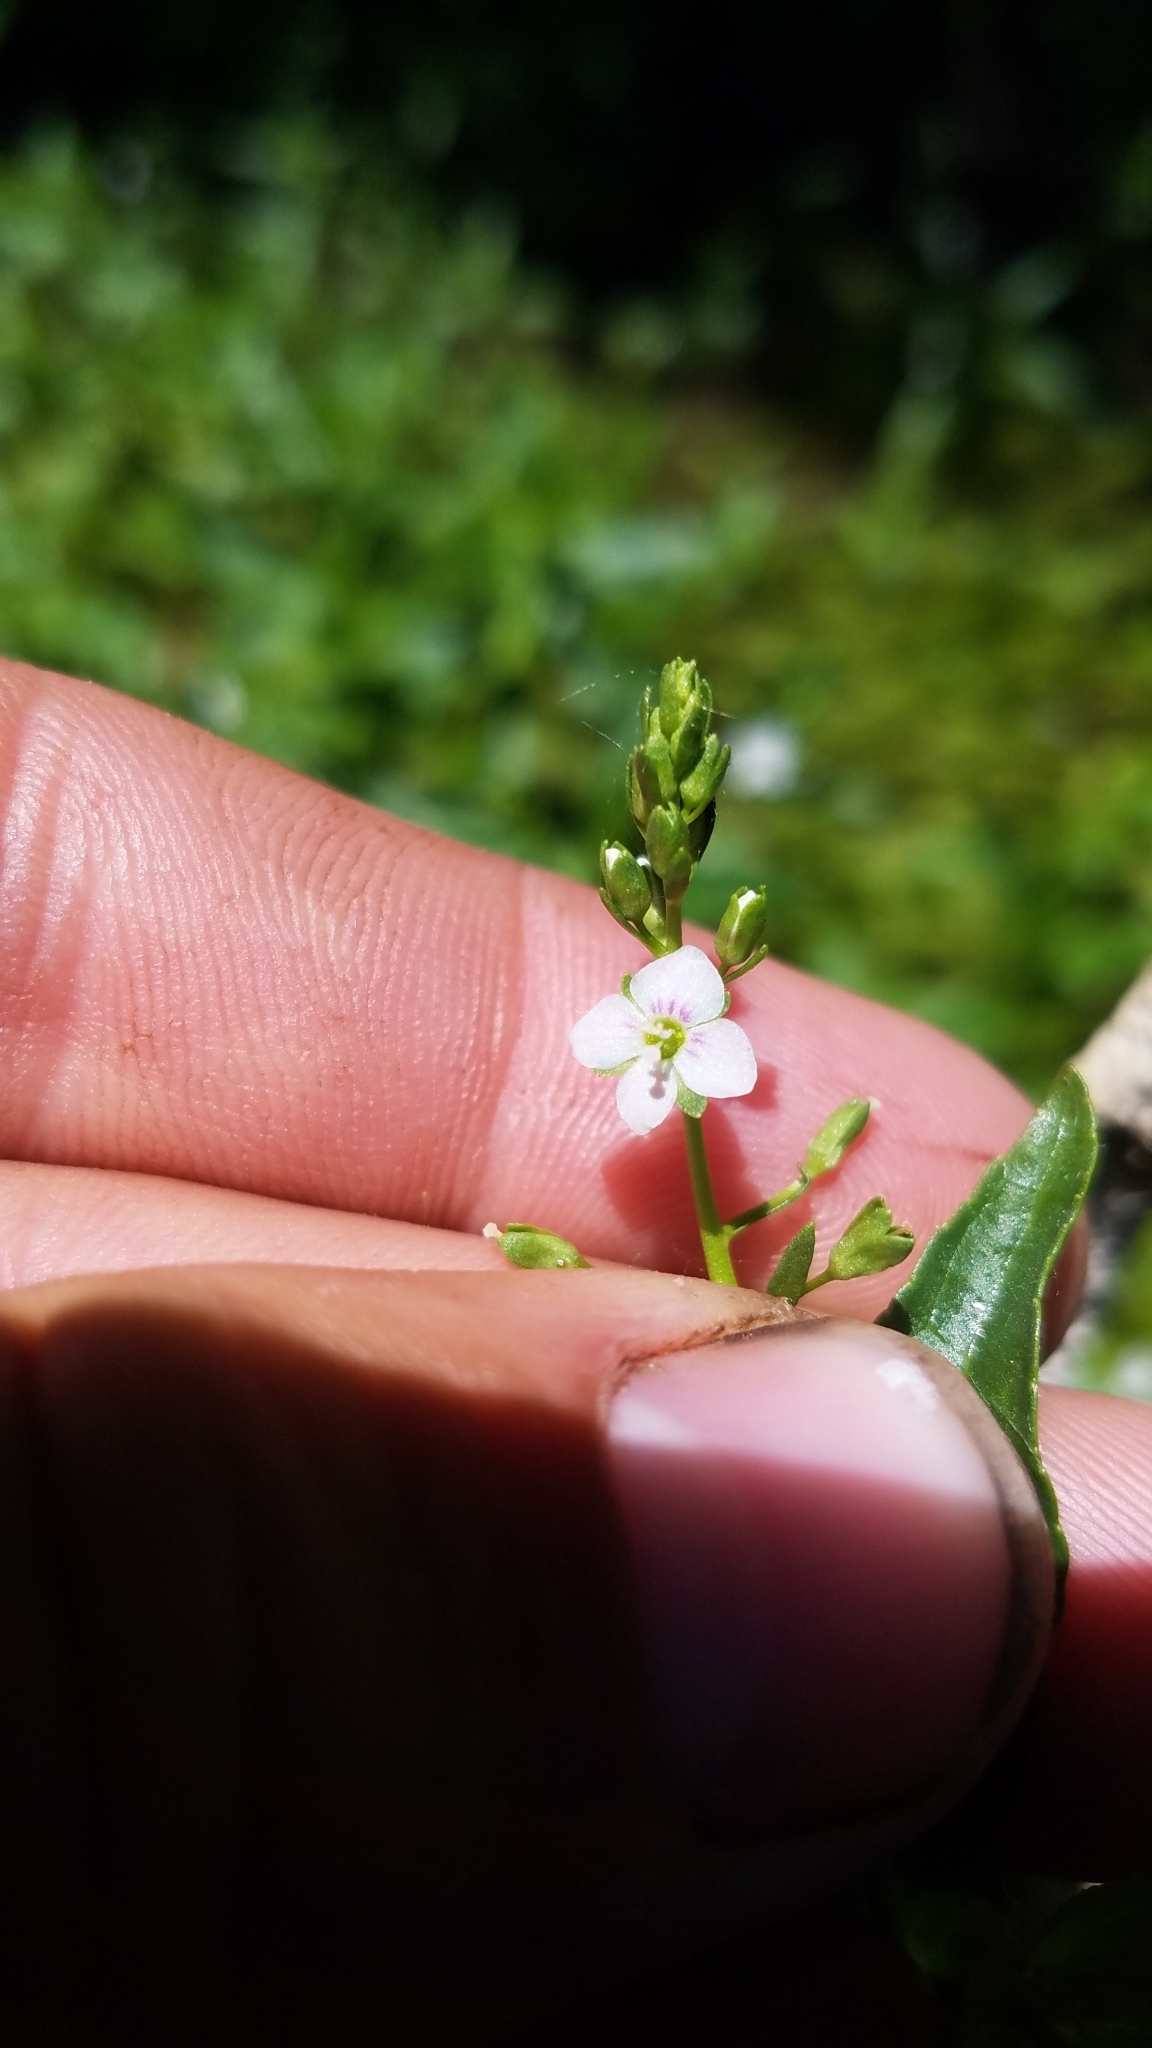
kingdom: Plantae
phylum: Tracheophyta
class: Magnoliopsida
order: Lamiales
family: Plantaginaceae
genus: Veronica
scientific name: Veronica anagallis-aquatica
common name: Water speedwell
